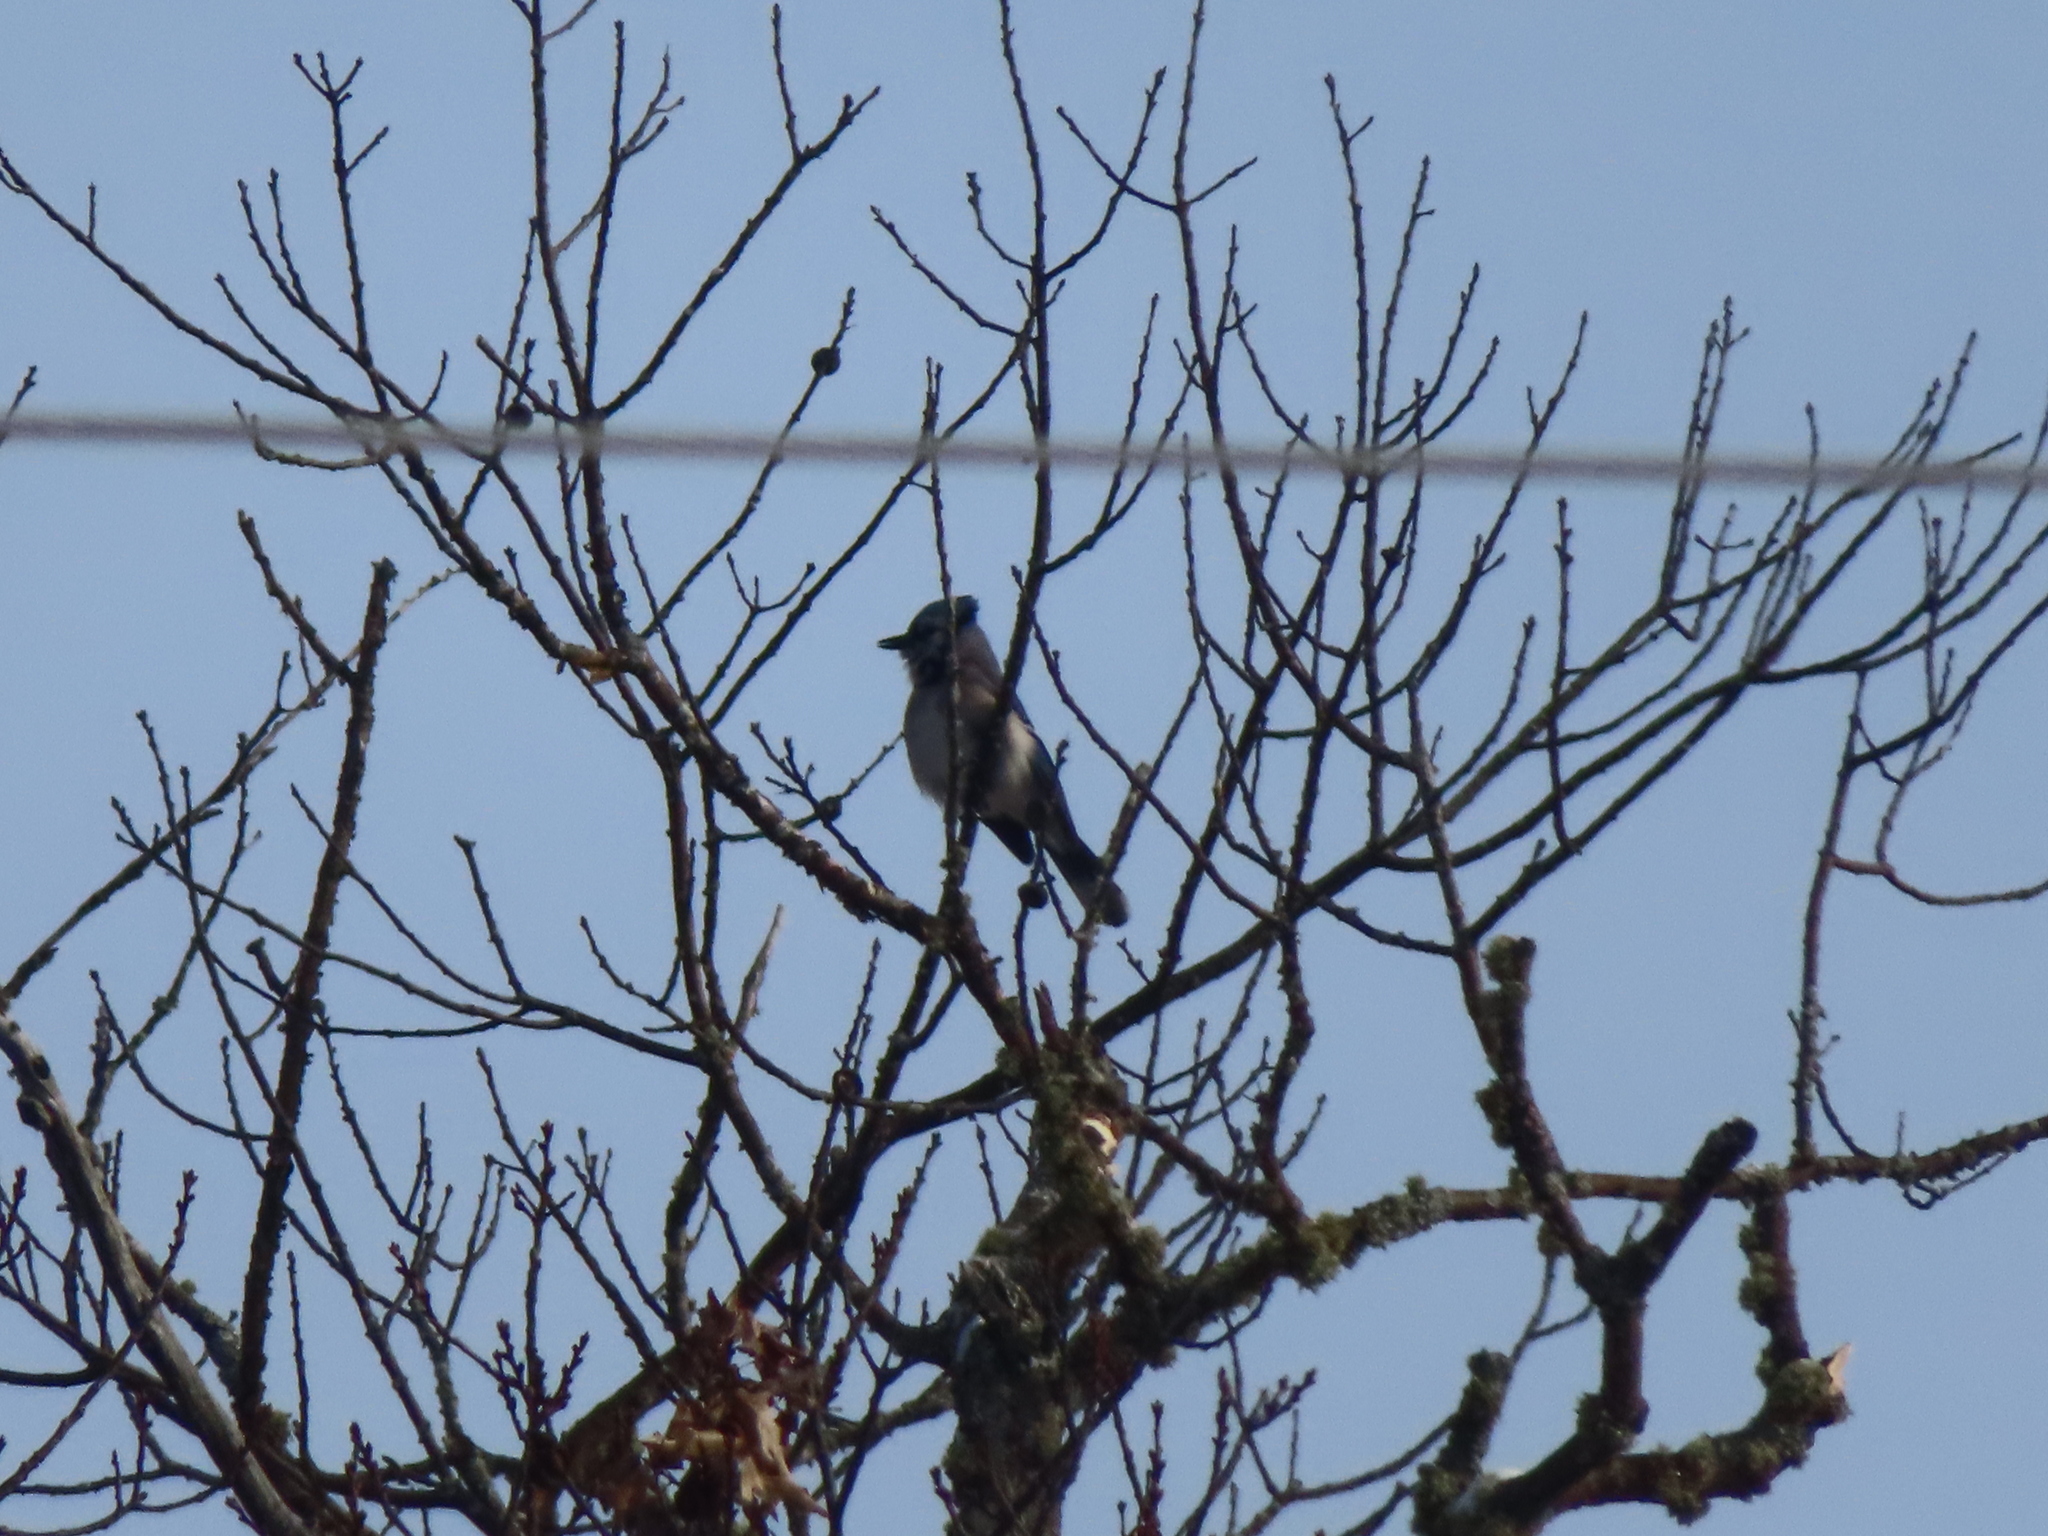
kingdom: Animalia
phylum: Chordata
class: Aves
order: Passeriformes
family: Corvidae
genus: Cyanocitta
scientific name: Cyanocitta cristata
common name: Blue jay
